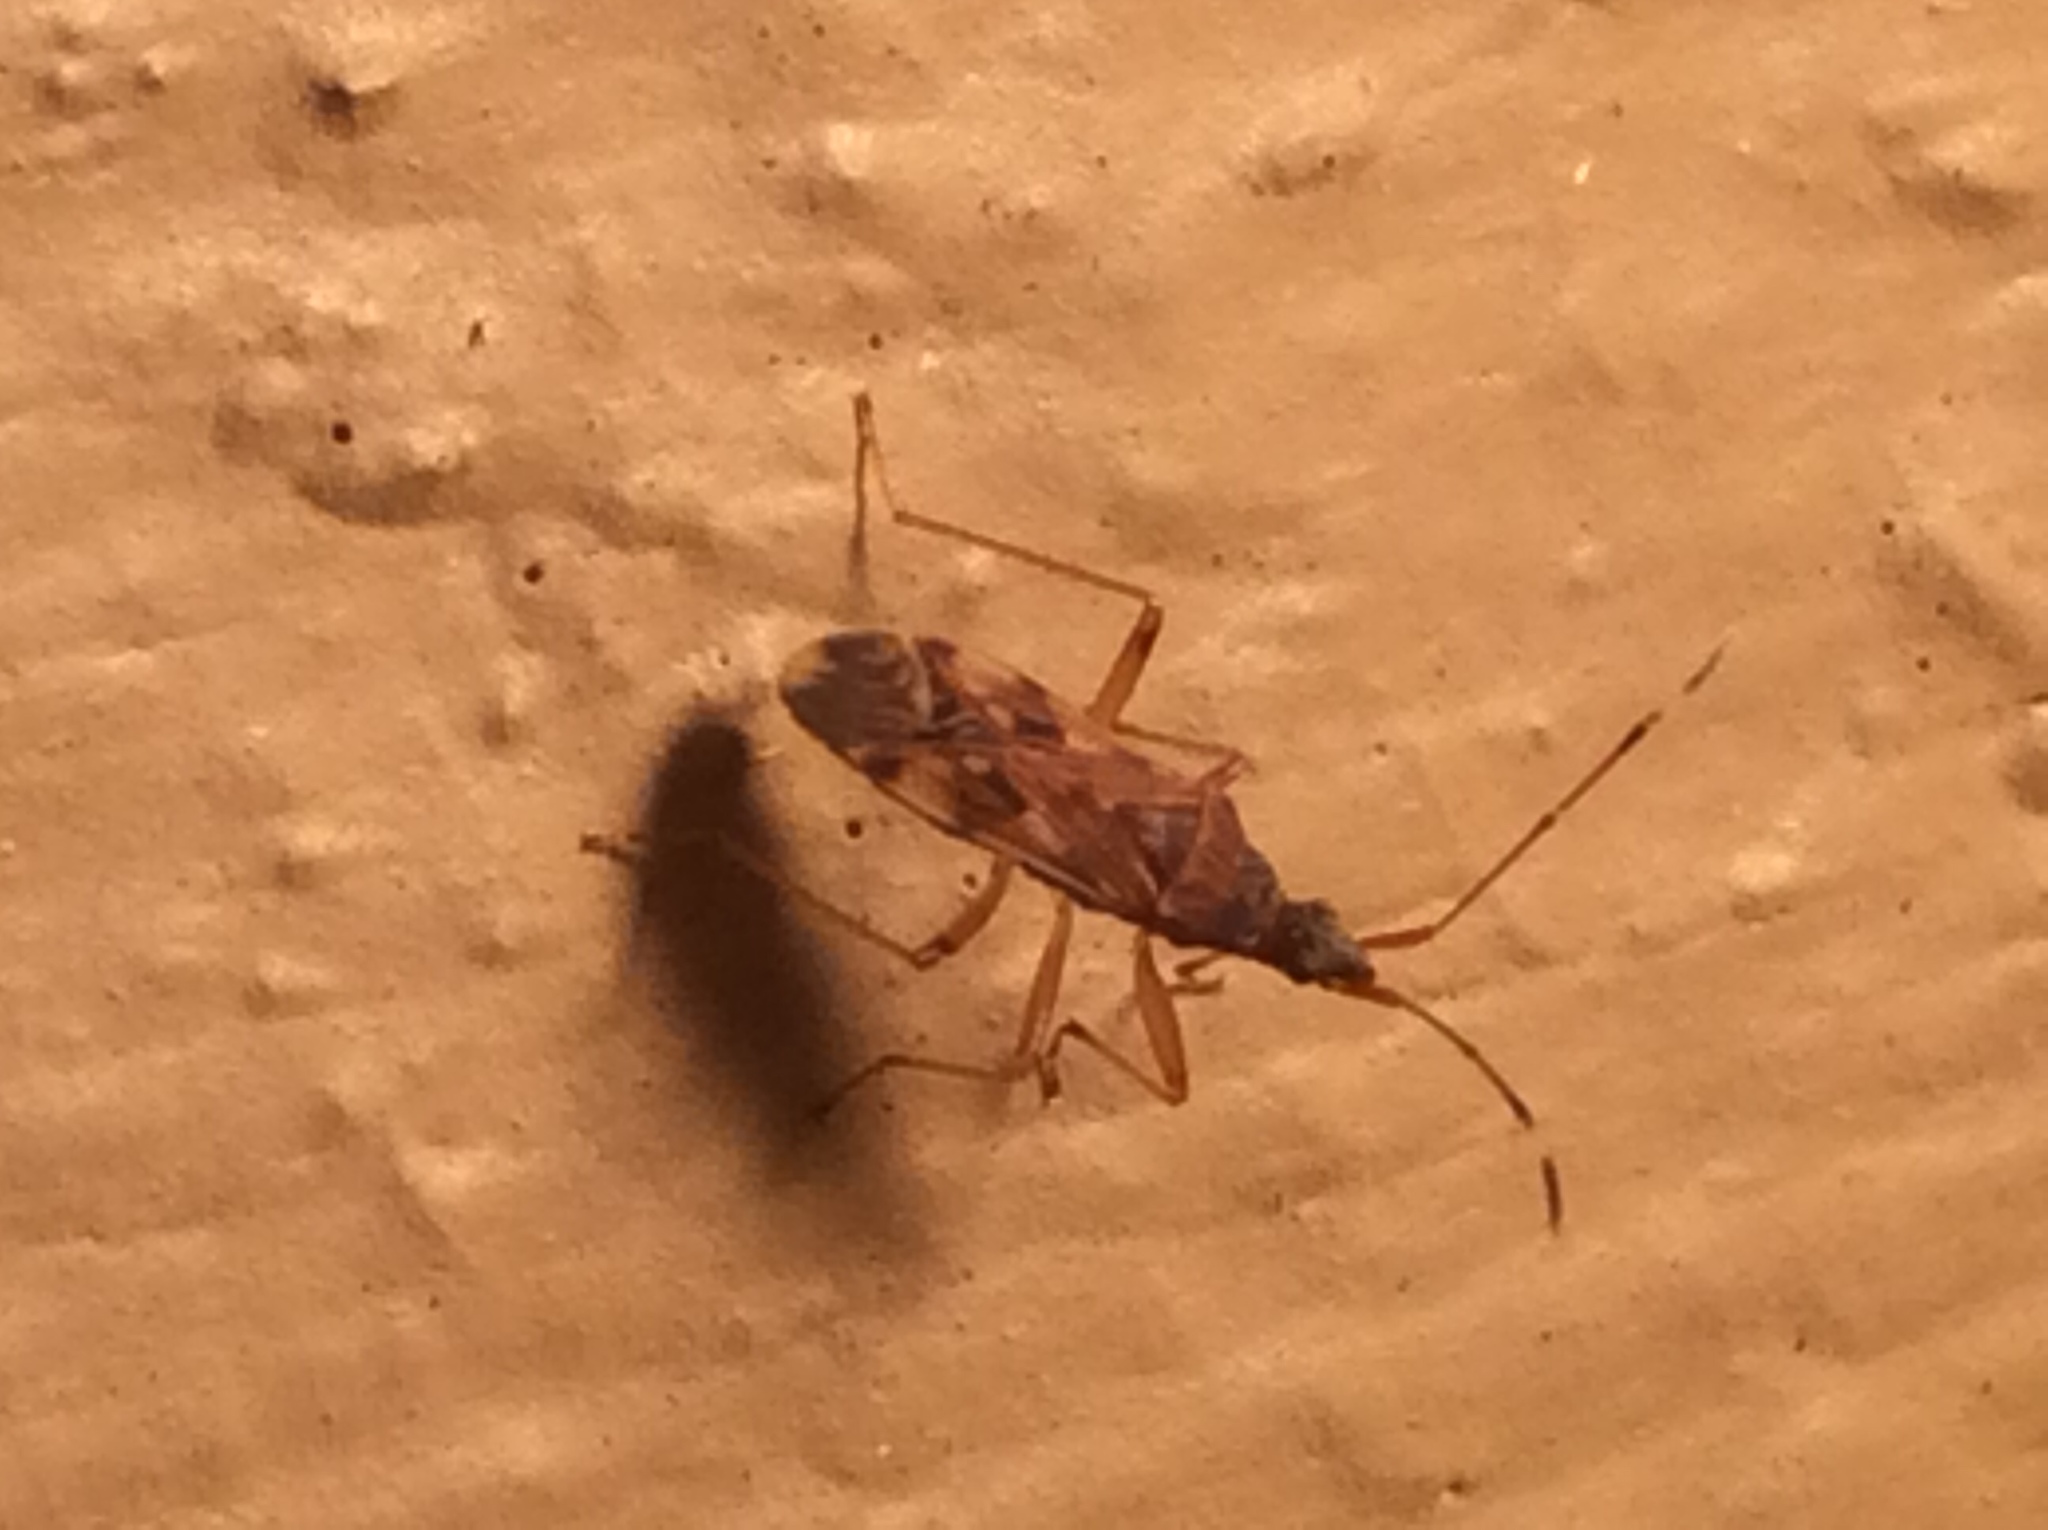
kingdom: Animalia
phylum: Arthropoda
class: Insecta
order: Hemiptera
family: Rhyparochromidae
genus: Ozophora
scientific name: Ozophora picturata
